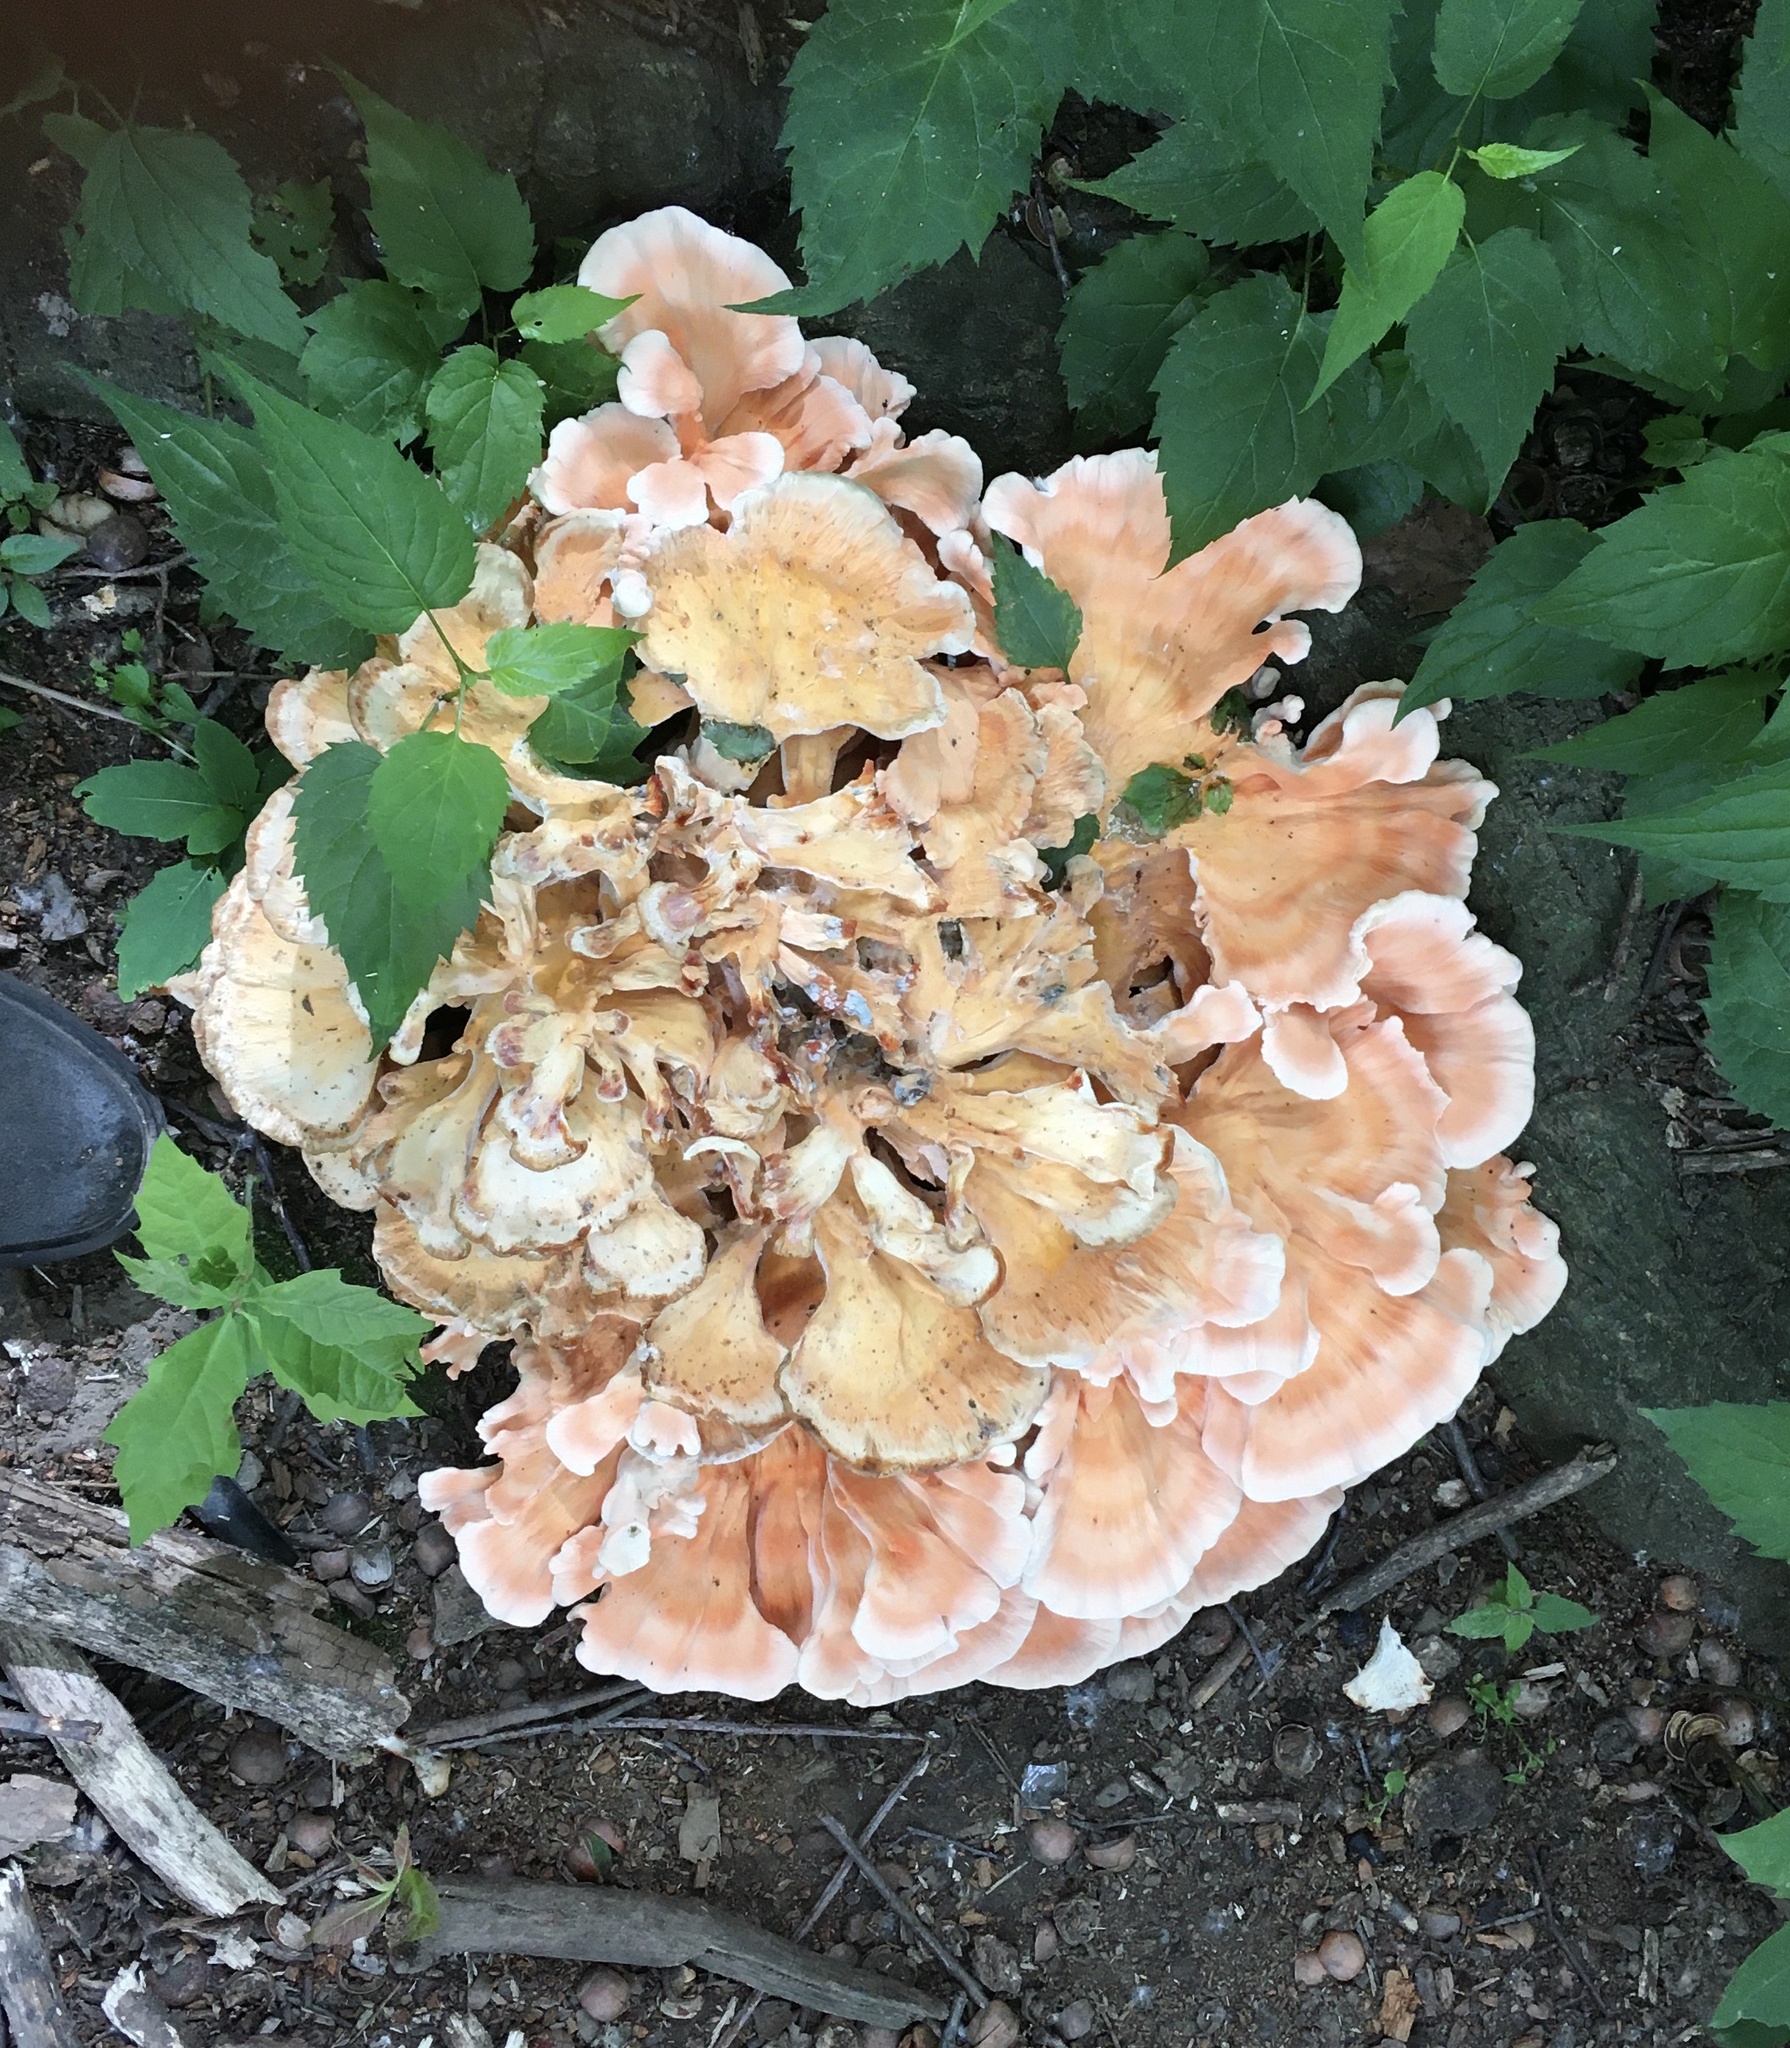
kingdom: Fungi
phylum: Basidiomycota
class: Agaricomycetes
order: Polyporales
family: Laetiporaceae
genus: Laetiporus
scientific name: Laetiporus sulphureus
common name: Chicken of the woods
